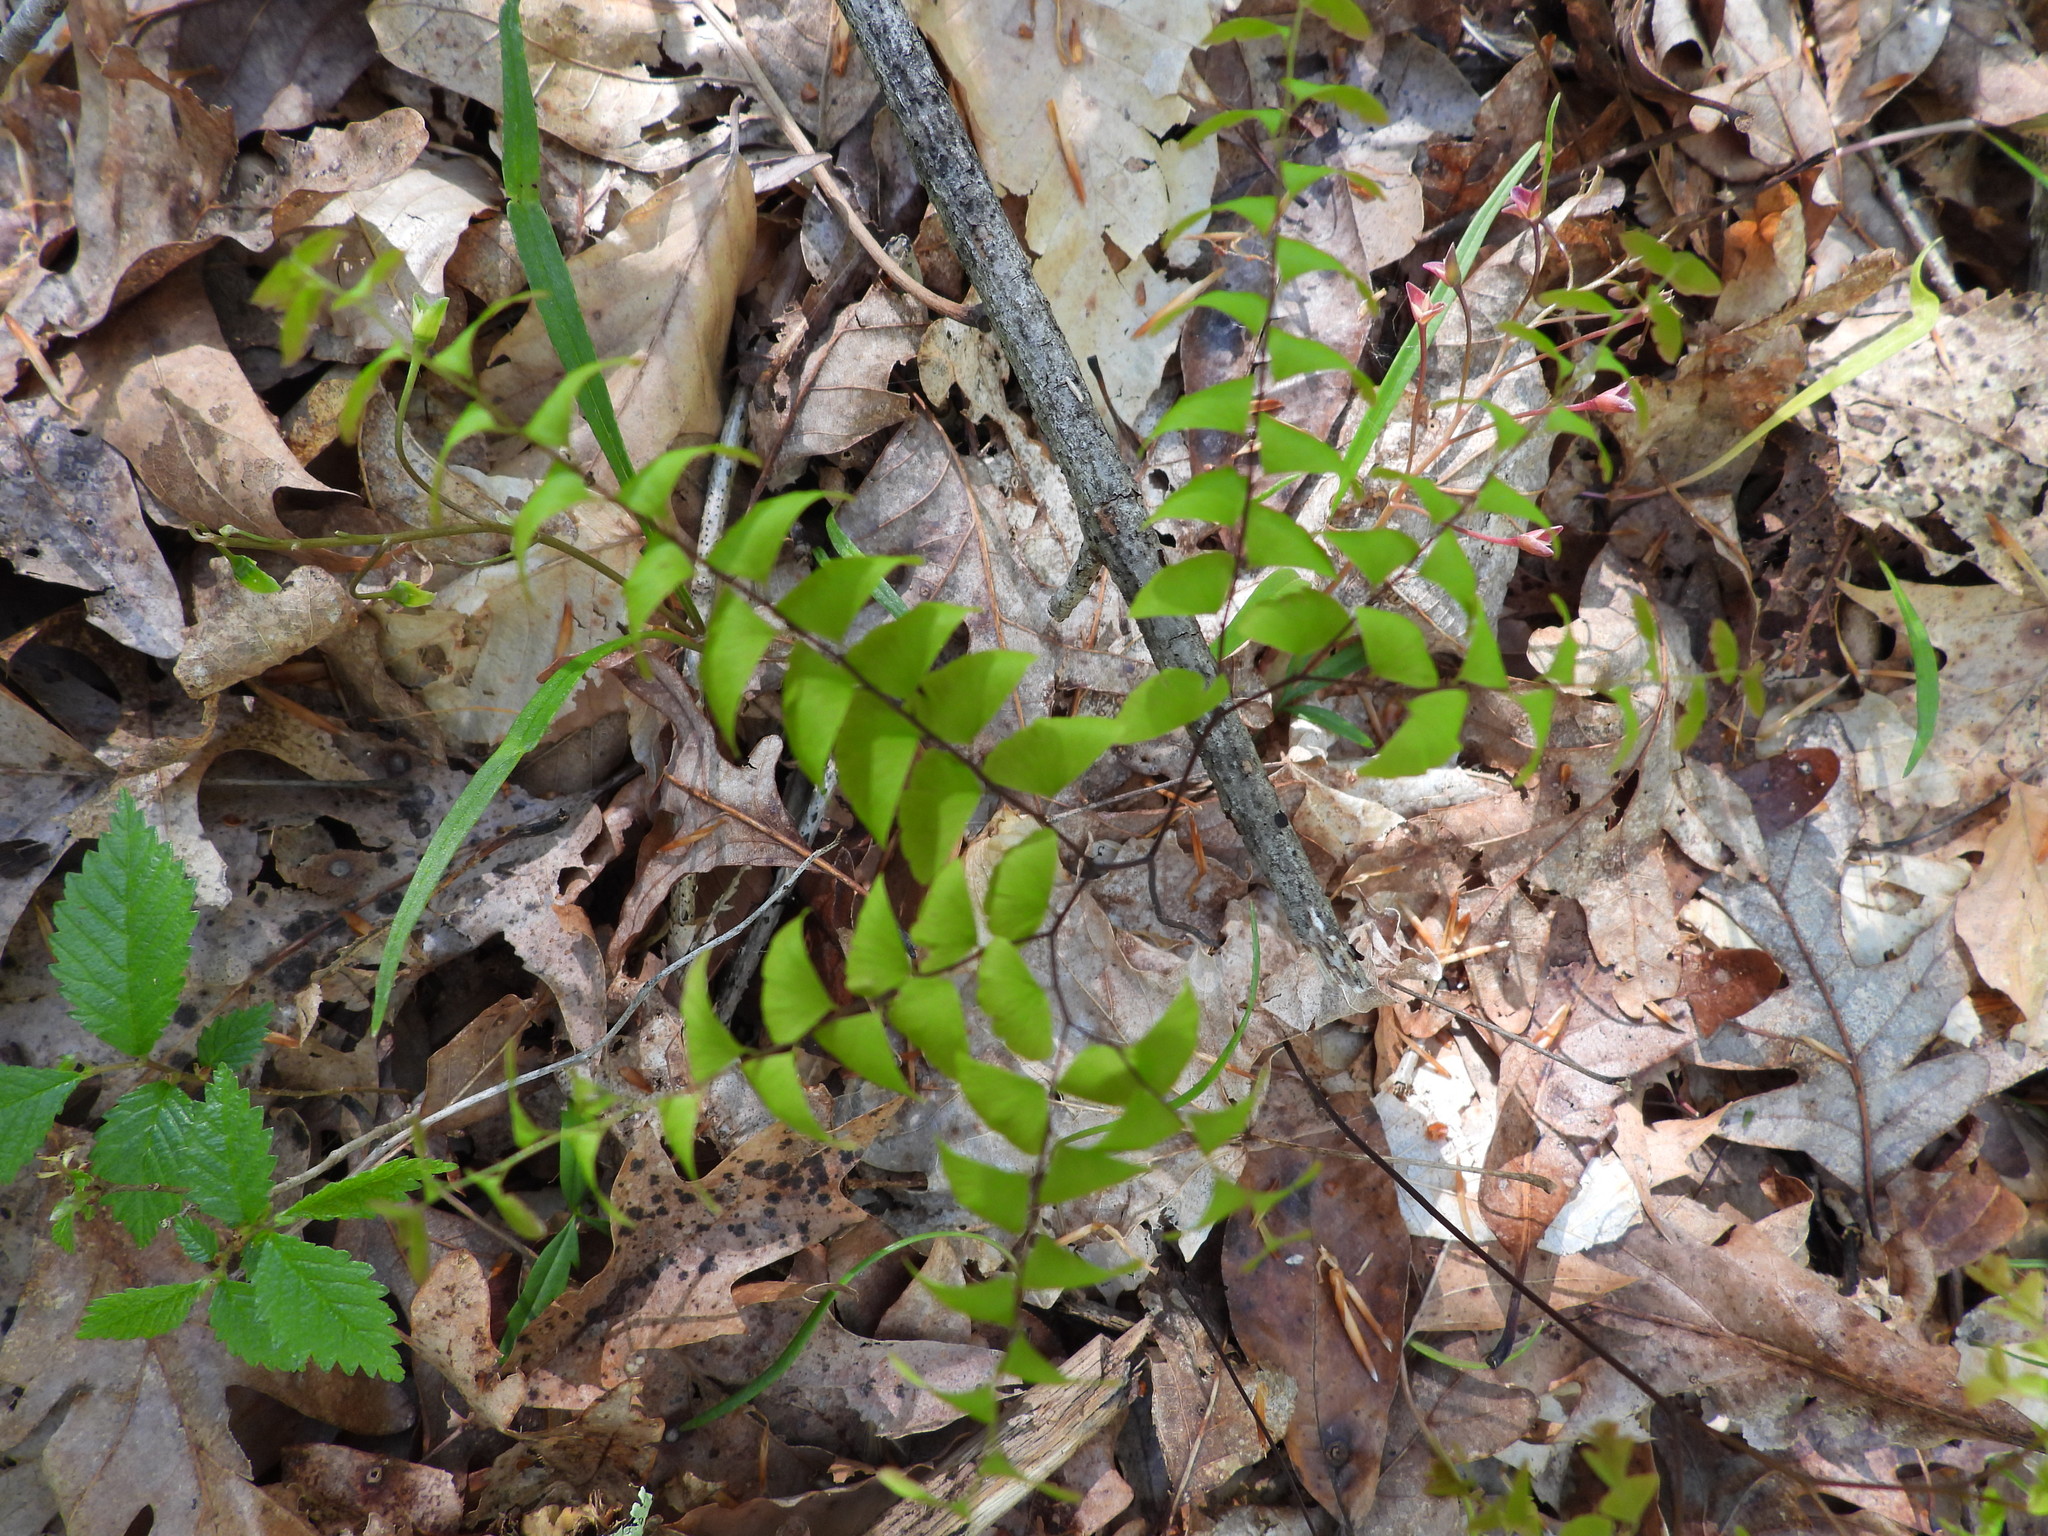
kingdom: Plantae
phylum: Tracheophyta
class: Polypodiopsida
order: Polypodiales
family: Pteridaceae
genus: Adiantum
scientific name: Adiantum pedatum
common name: Five-finger fern
